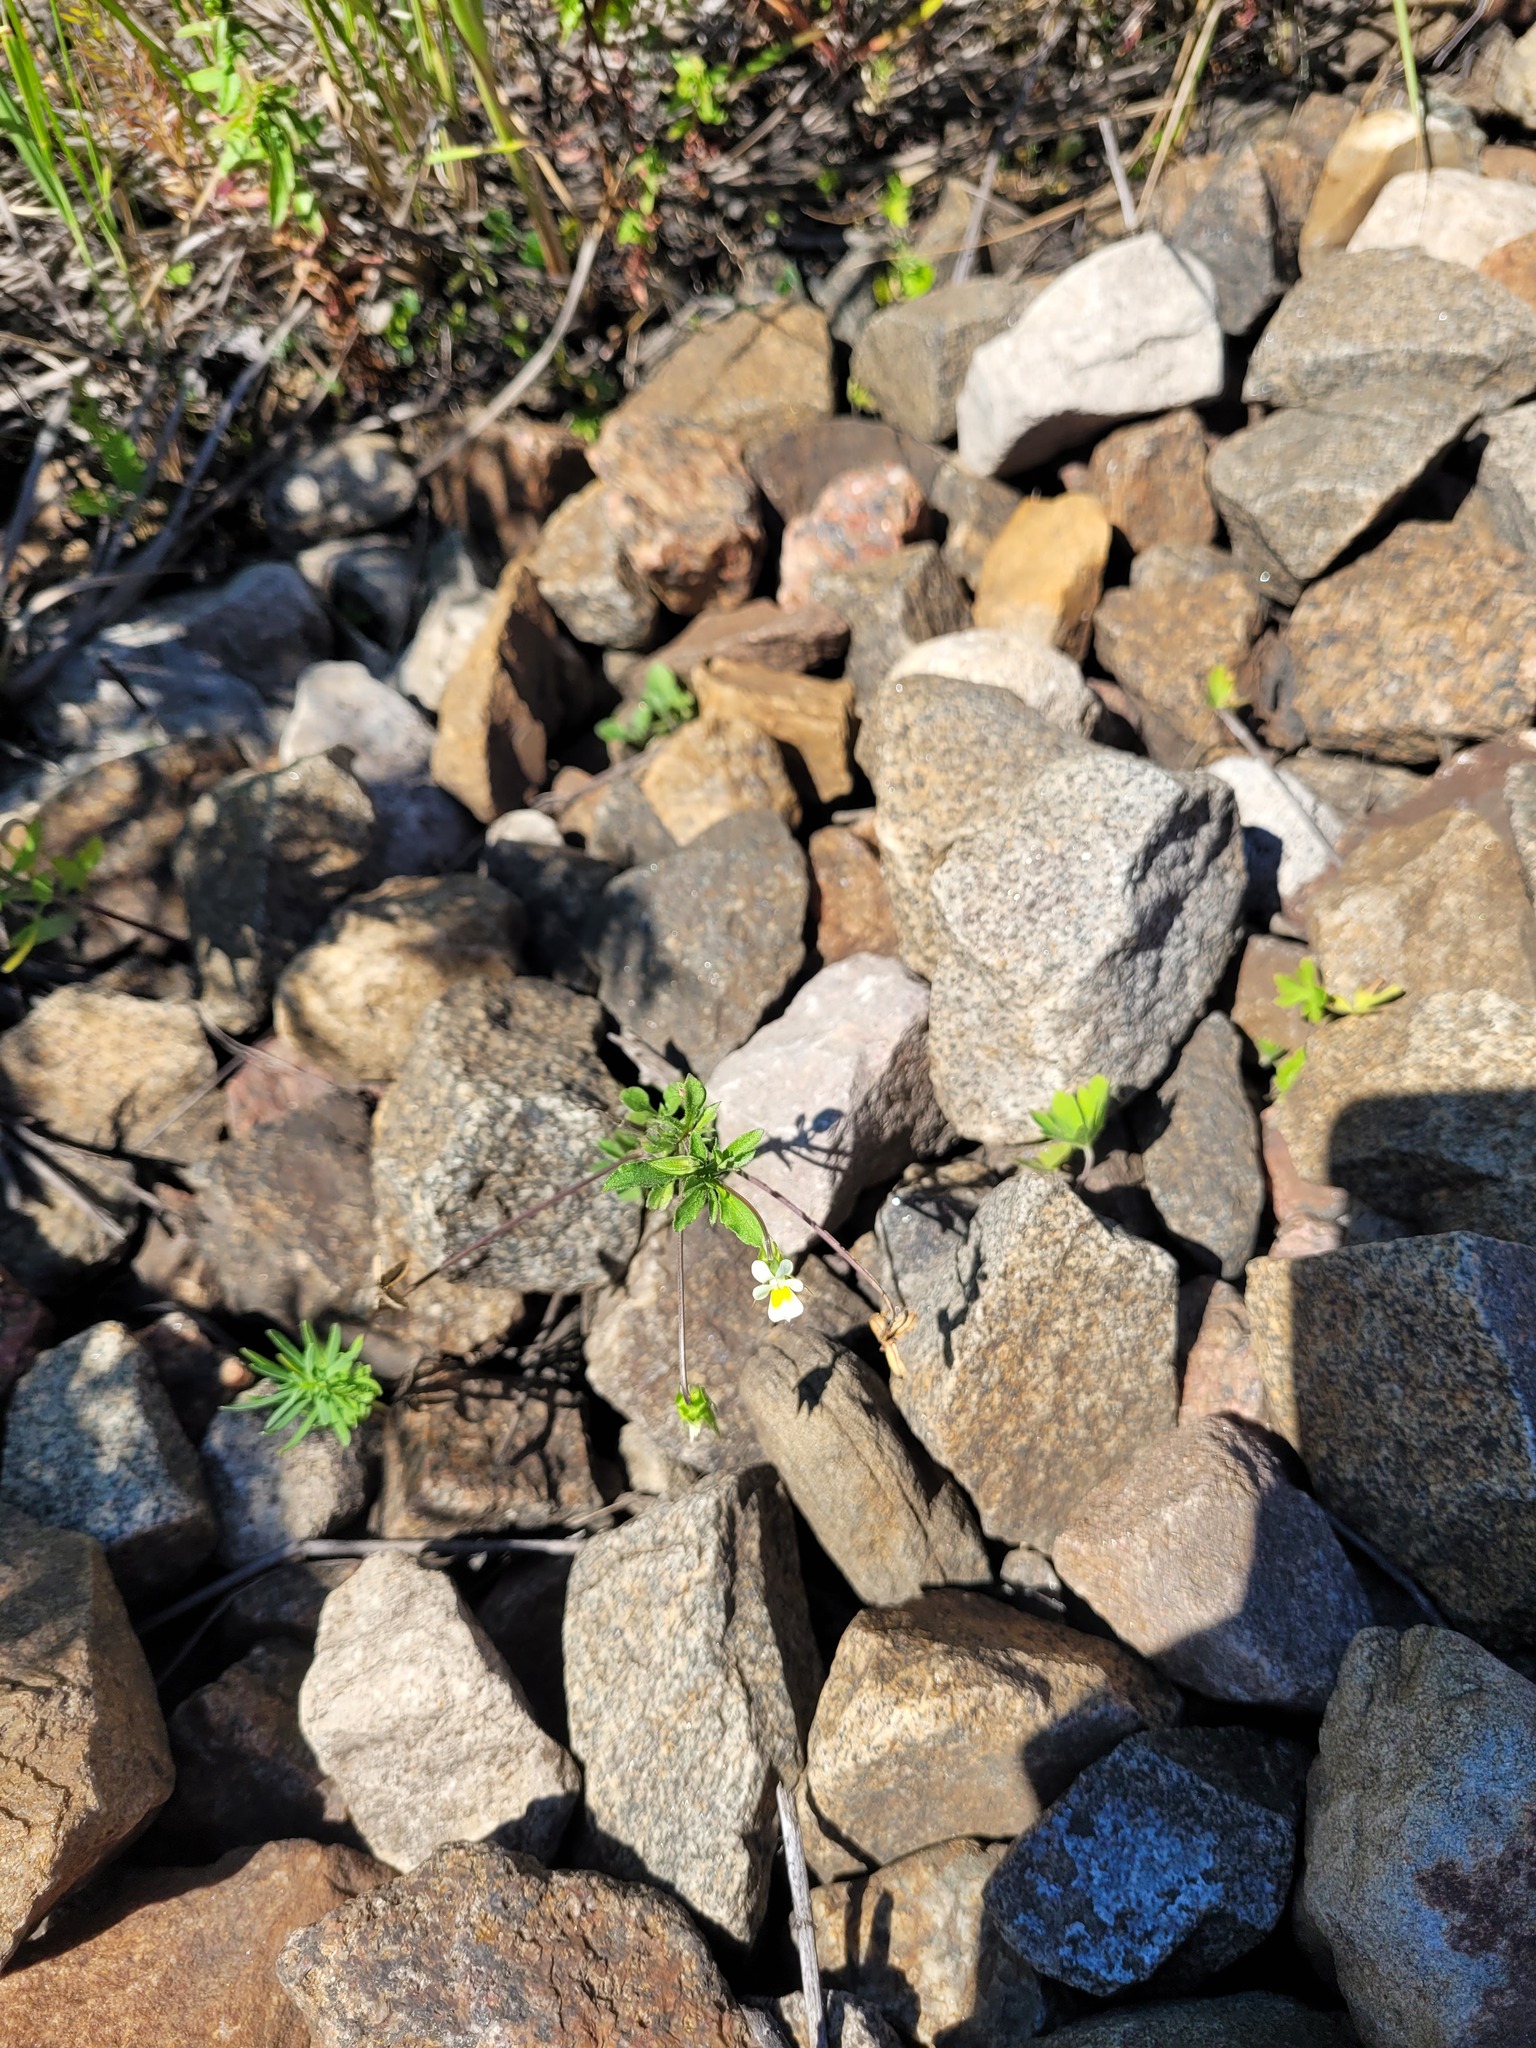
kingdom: Plantae
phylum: Tracheophyta
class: Magnoliopsida
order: Malpighiales
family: Violaceae
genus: Viola
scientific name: Viola arvensis
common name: Field pansy
